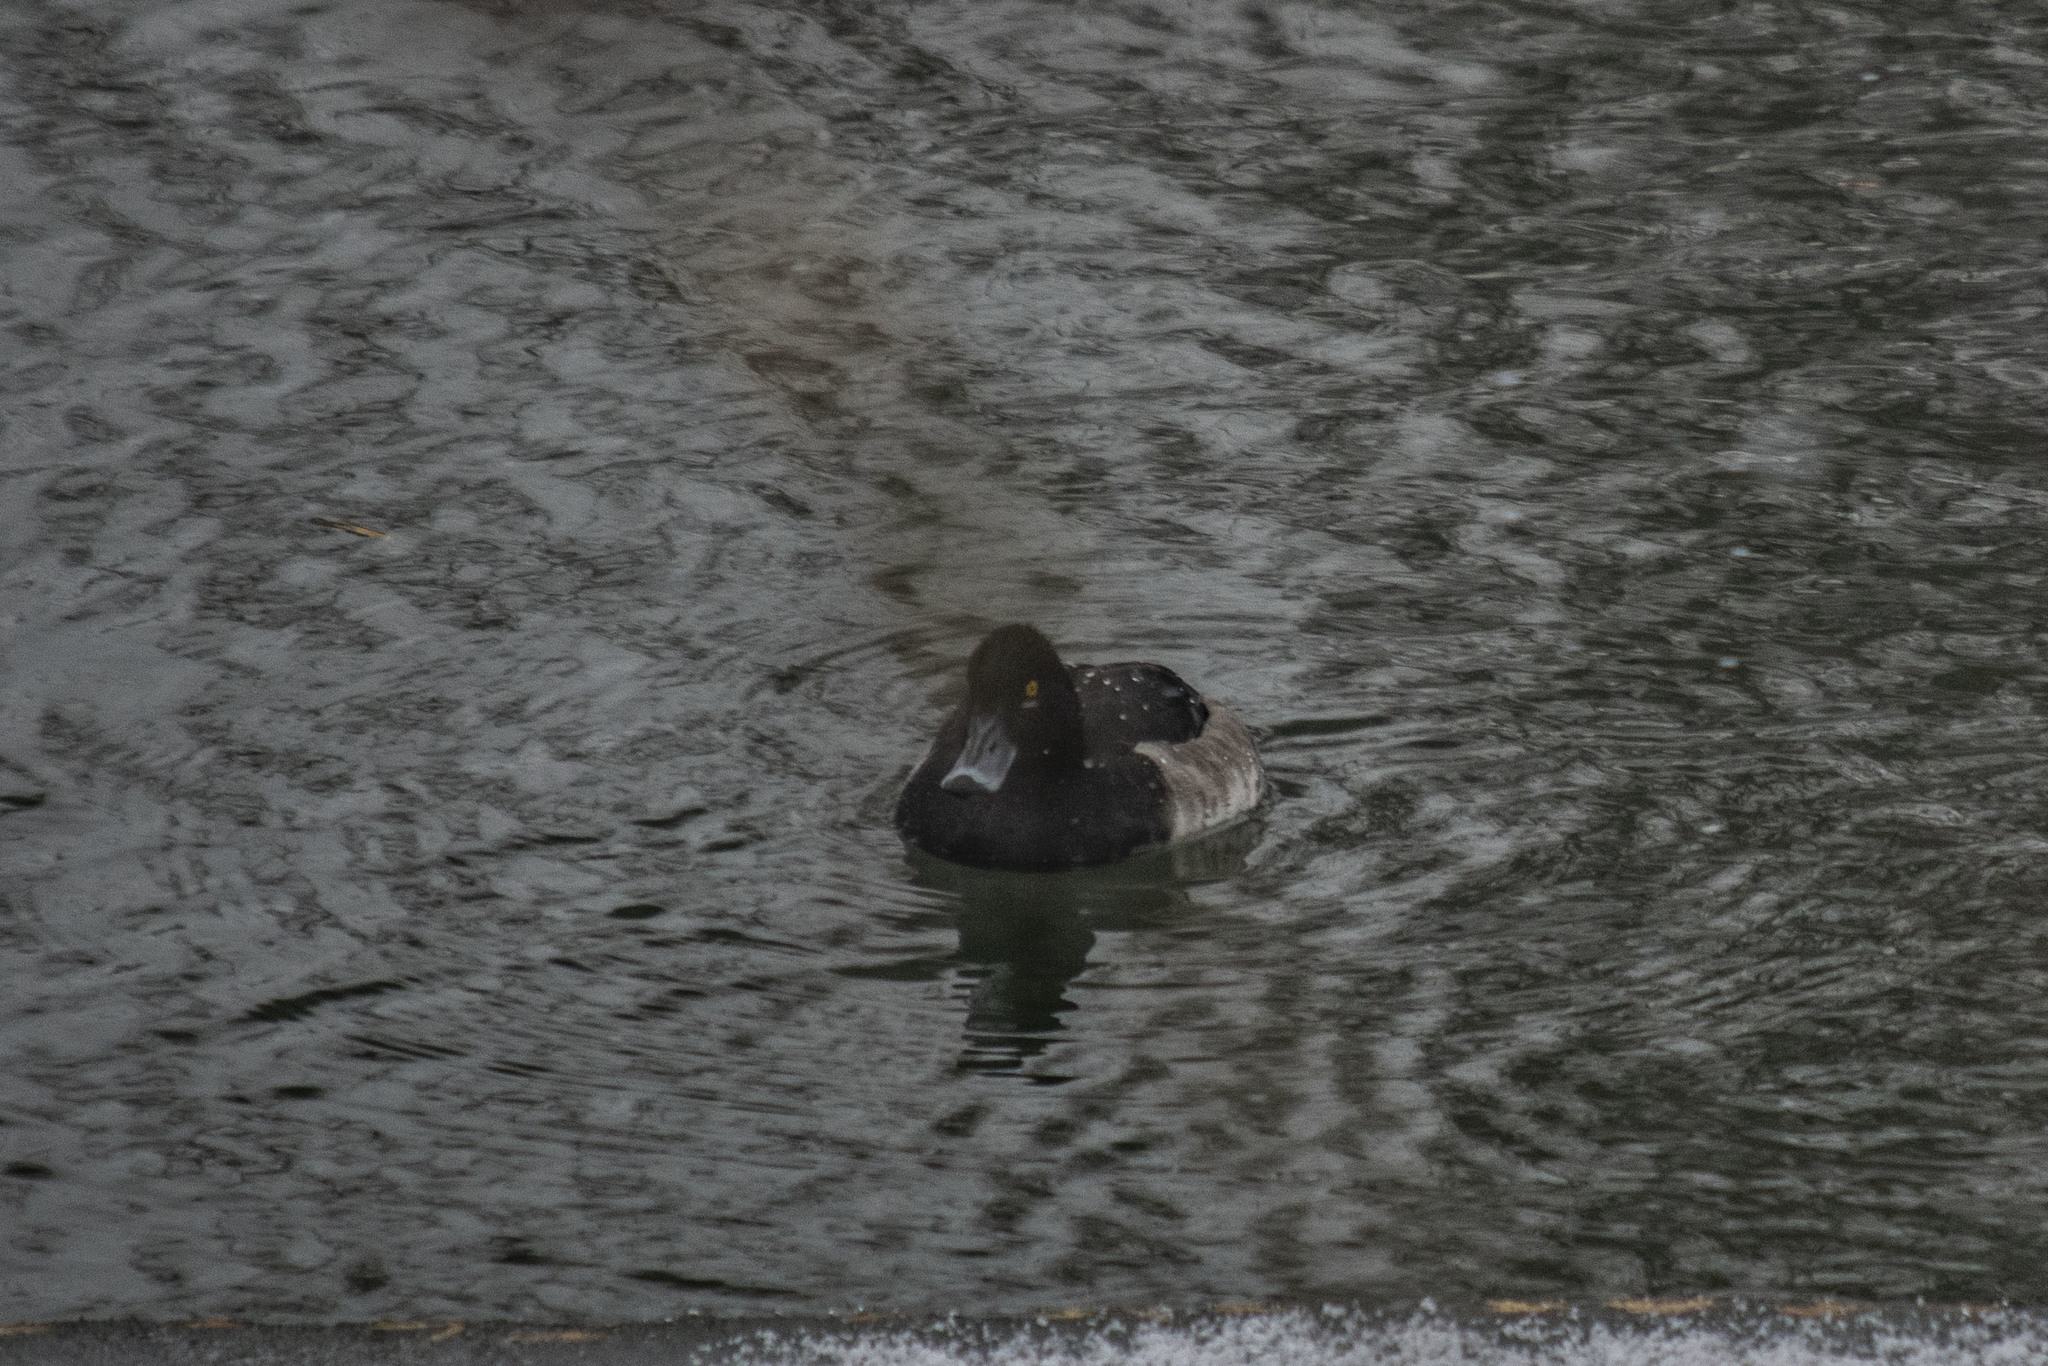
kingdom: Animalia
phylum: Chordata
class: Aves
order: Anseriformes
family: Anatidae
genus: Aythya
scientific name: Aythya fuligula
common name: Tufted duck
